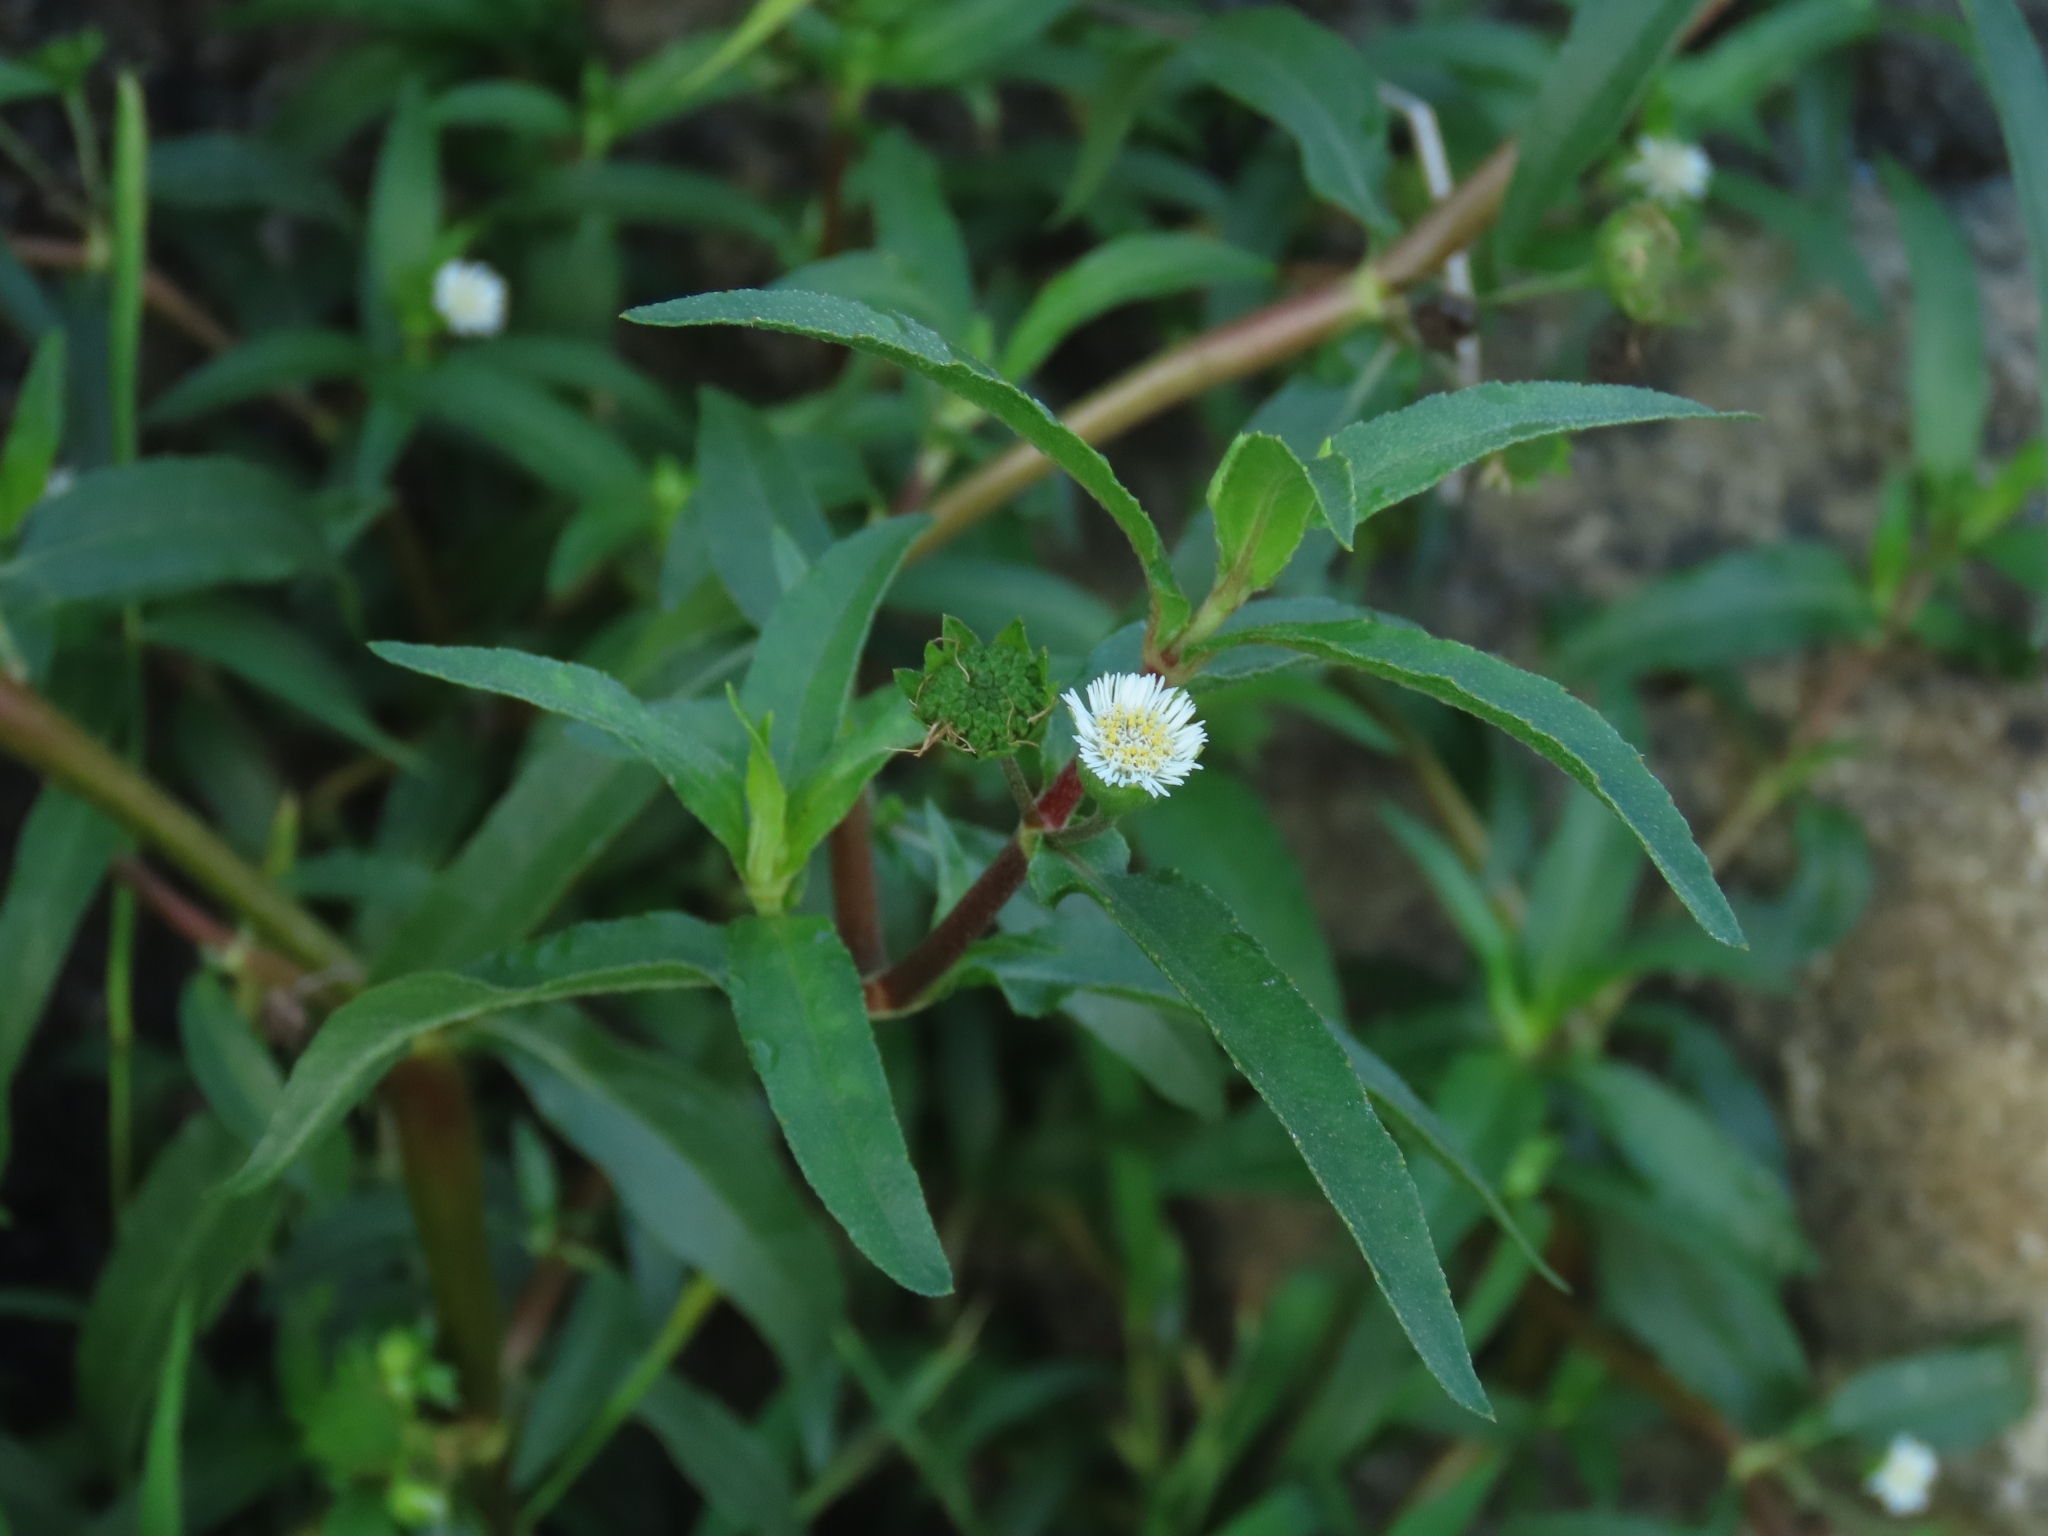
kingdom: Plantae
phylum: Tracheophyta
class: Magnoliopsida
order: Asterales
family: Asteraceae
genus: Eclipta
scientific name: Eclipta prostrata
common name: False daisy
